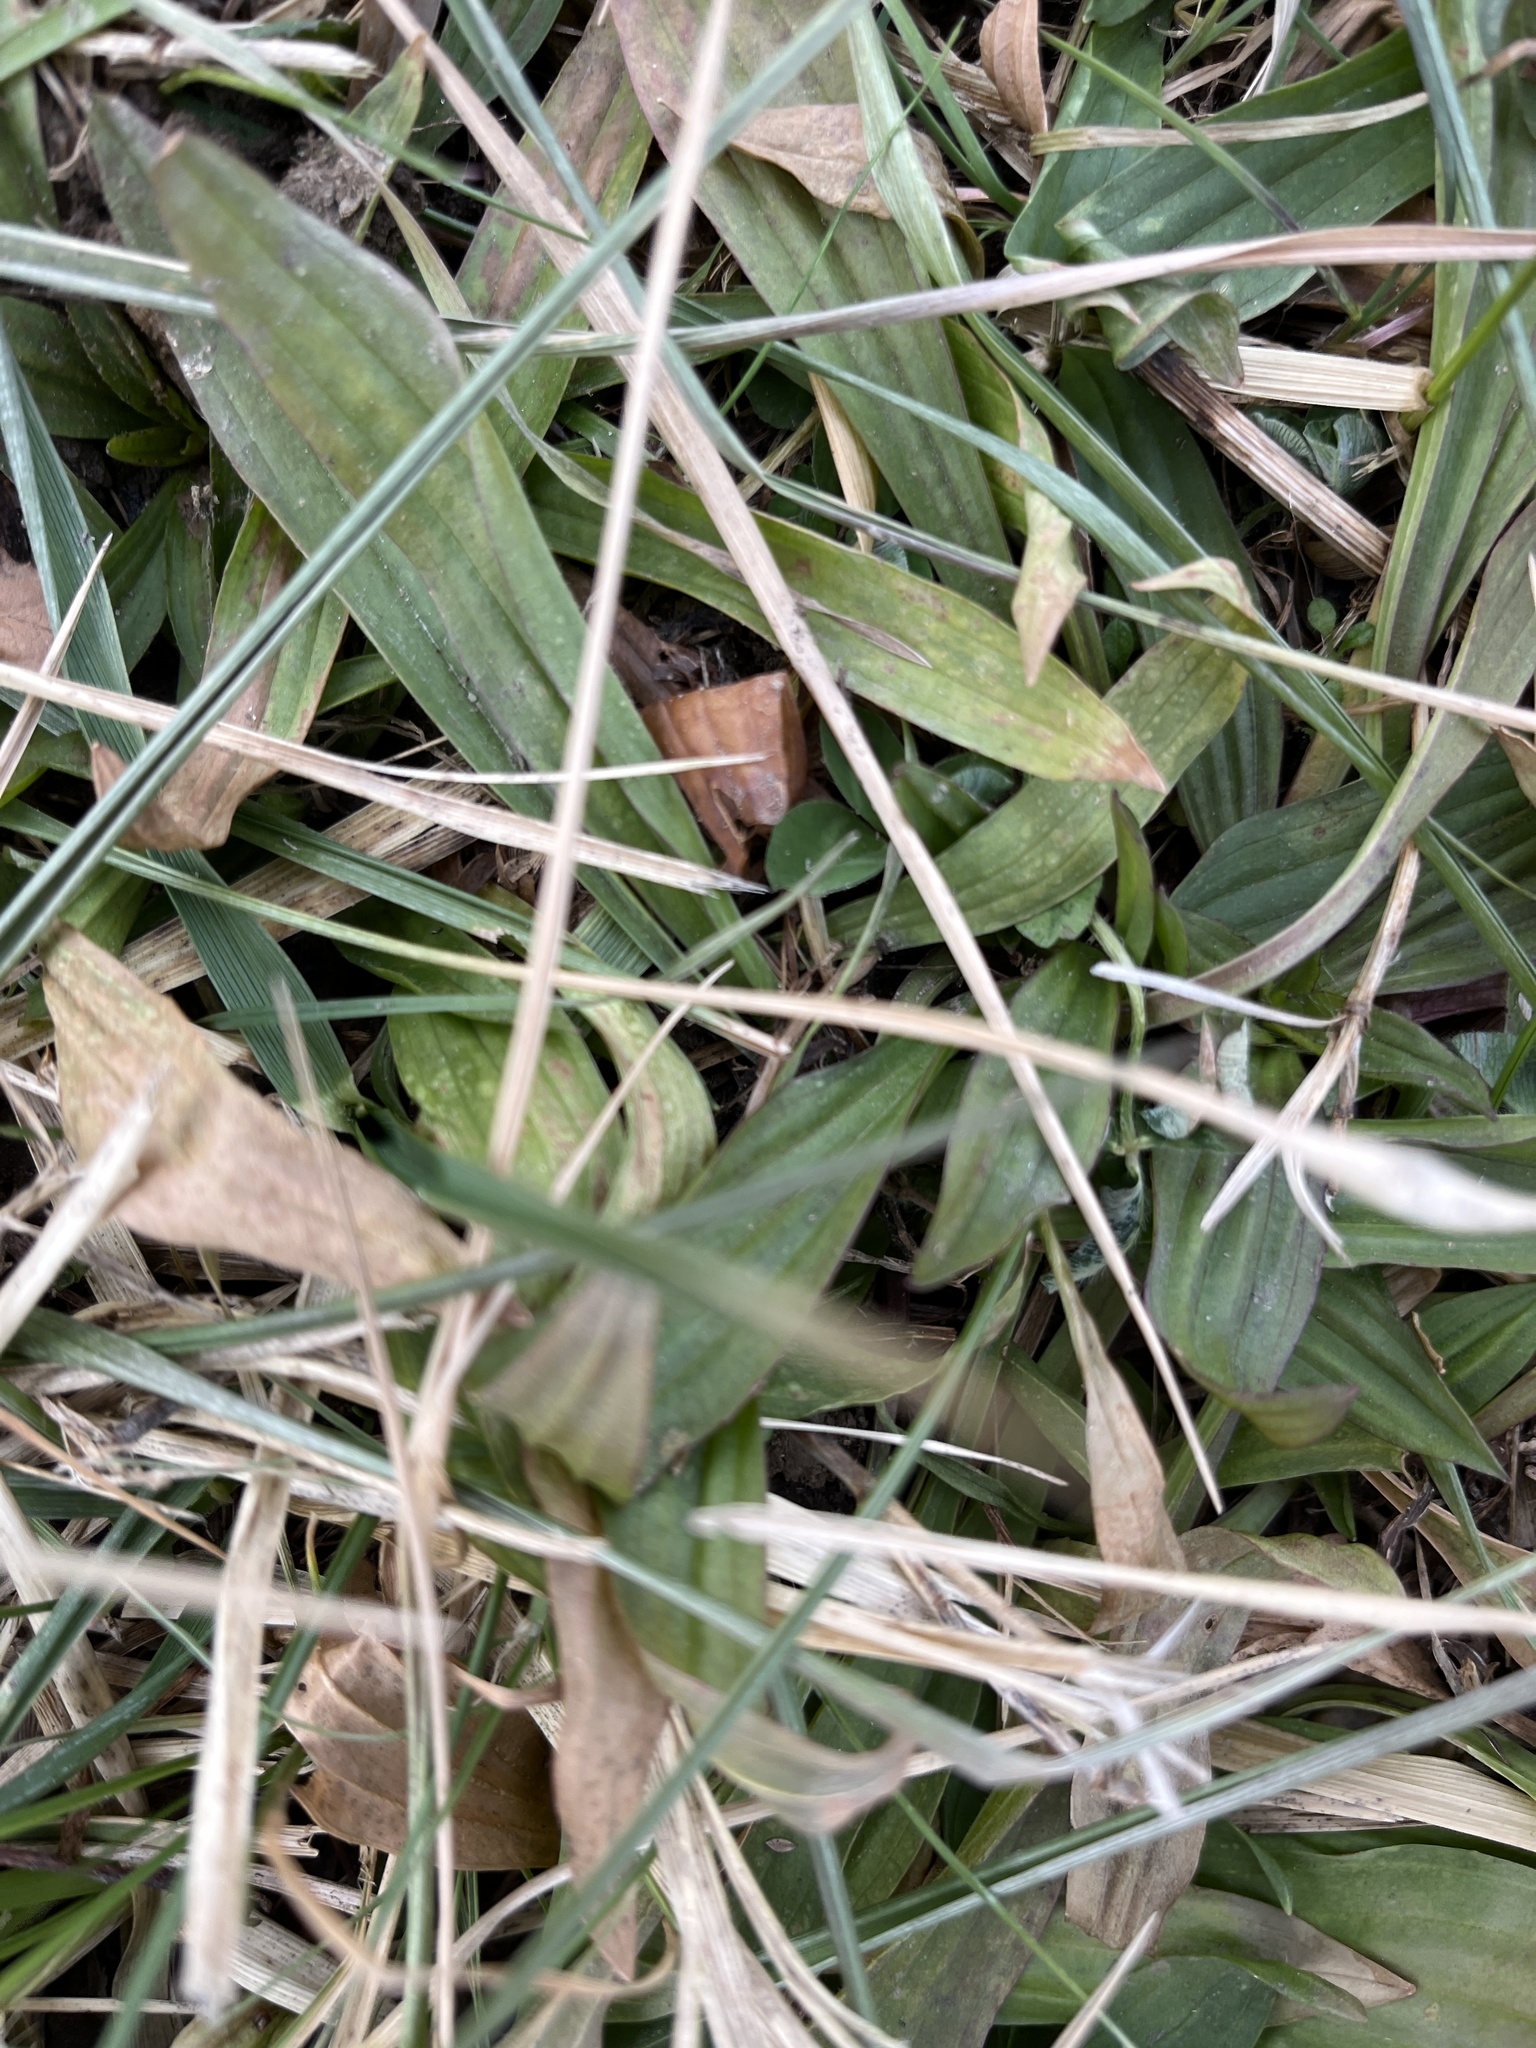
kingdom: Plantae
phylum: Tracheophyta
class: Magnoliopsida
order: Lamiales
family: Plantaginaceae
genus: Plantago
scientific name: Plantago lanceolata
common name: Ribwort plantain
